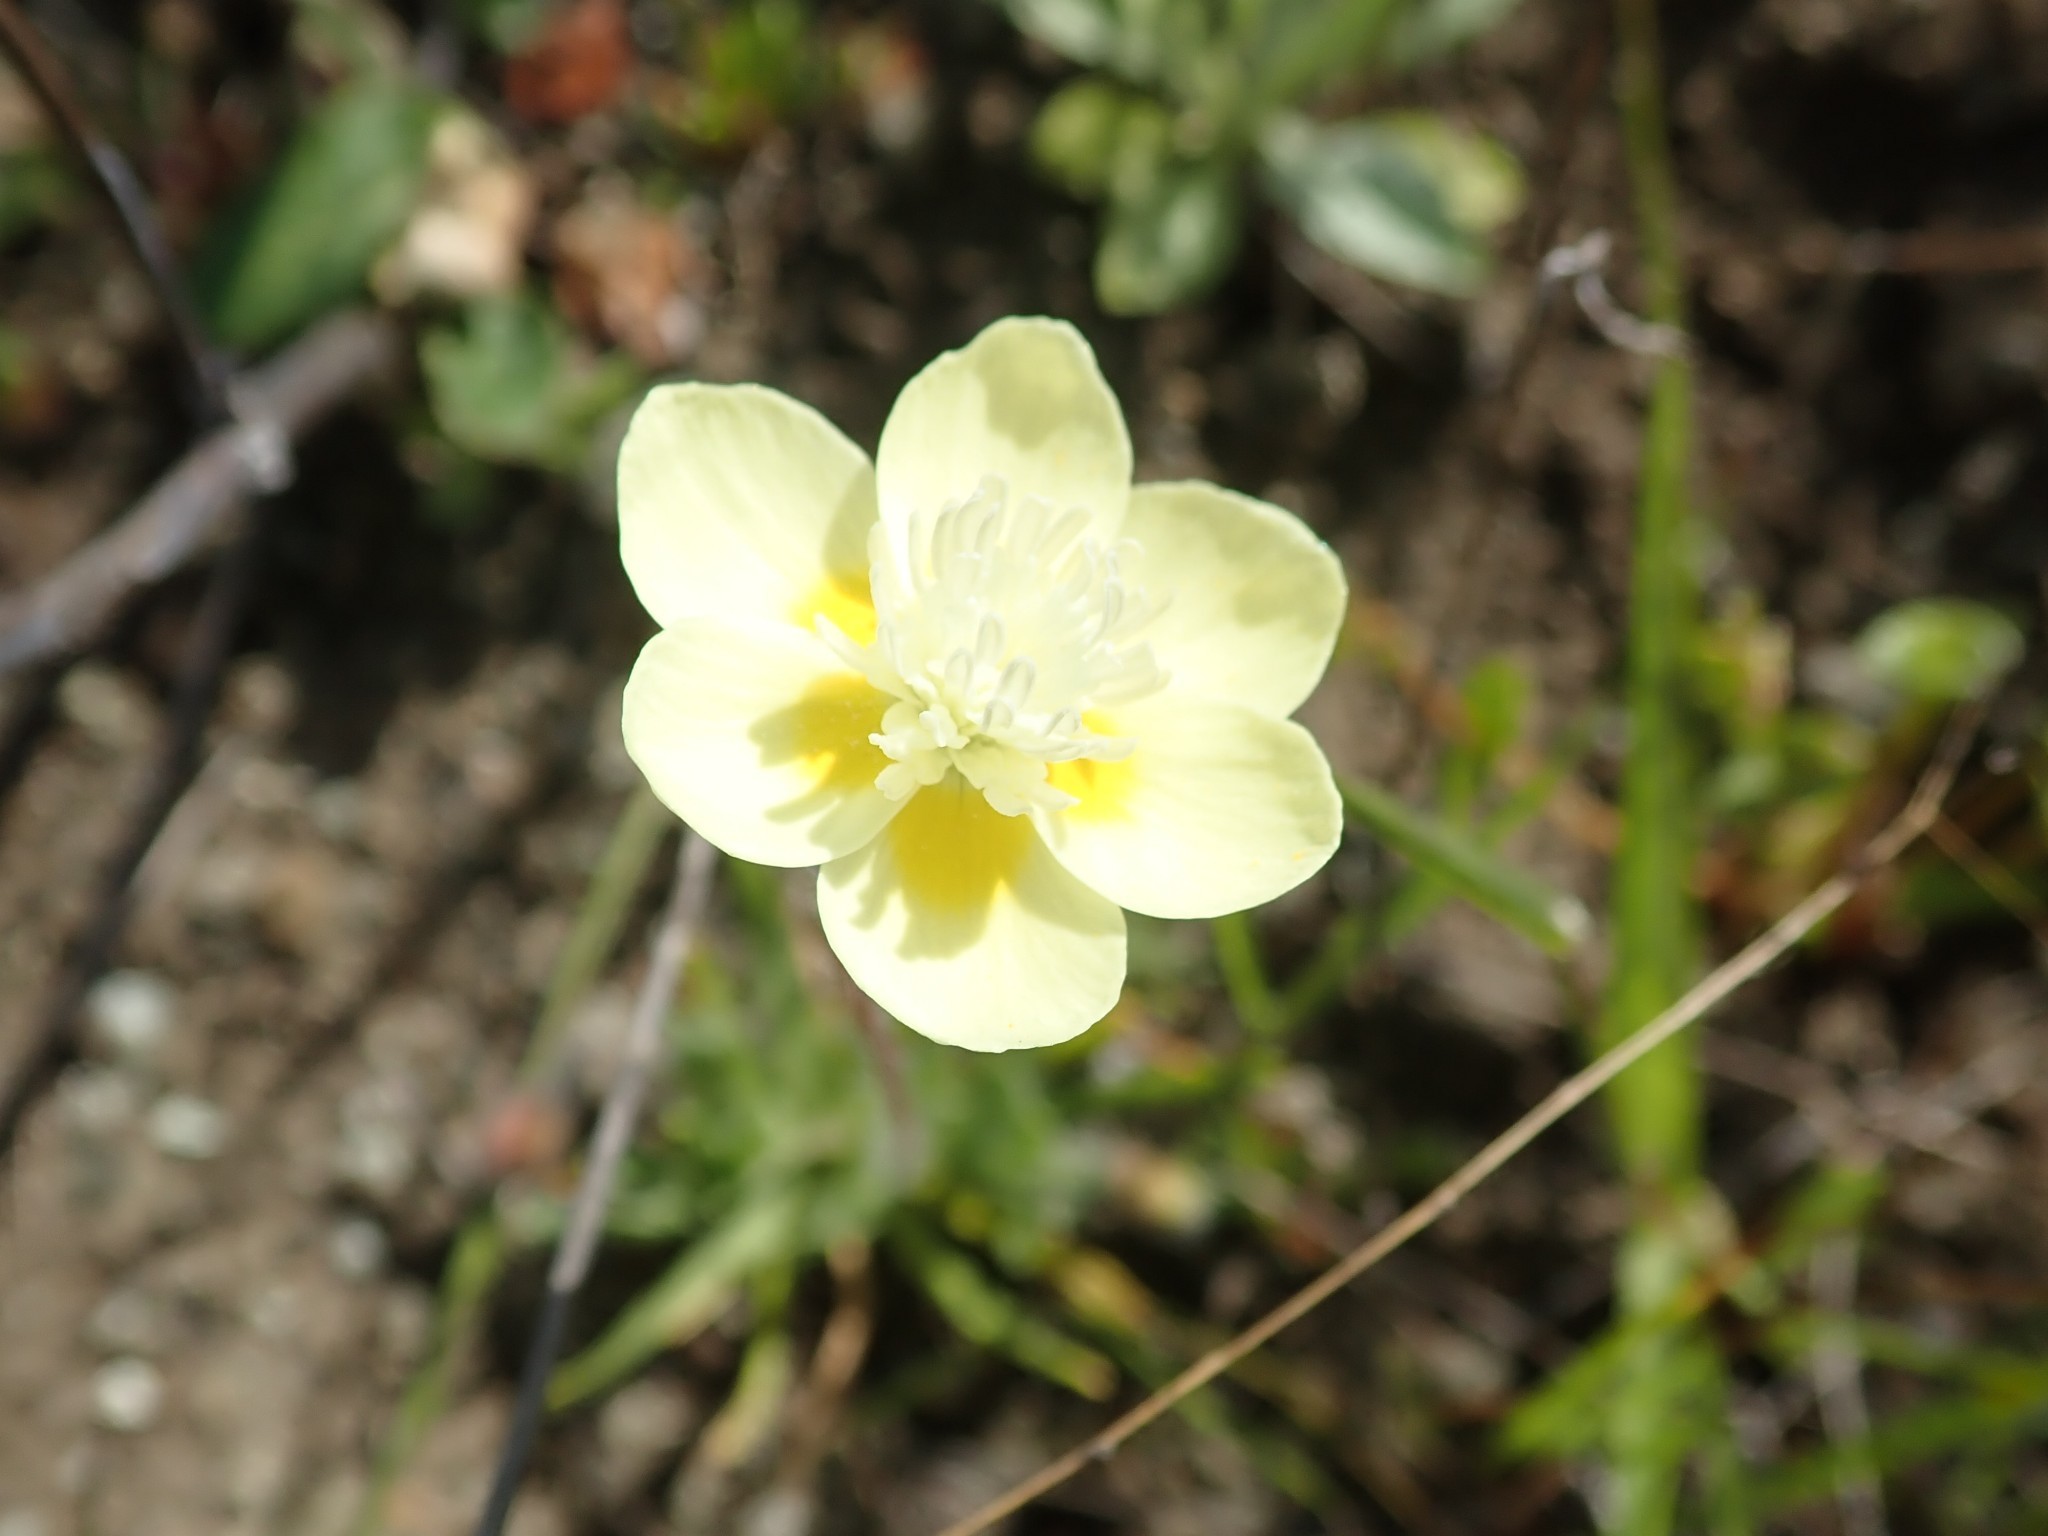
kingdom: Plantae
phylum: Tracheophyta
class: Magnoliopsida
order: Ranunculales
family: Papaveraceae
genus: Platystemon
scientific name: Platystemon californicus
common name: Cream-cups
